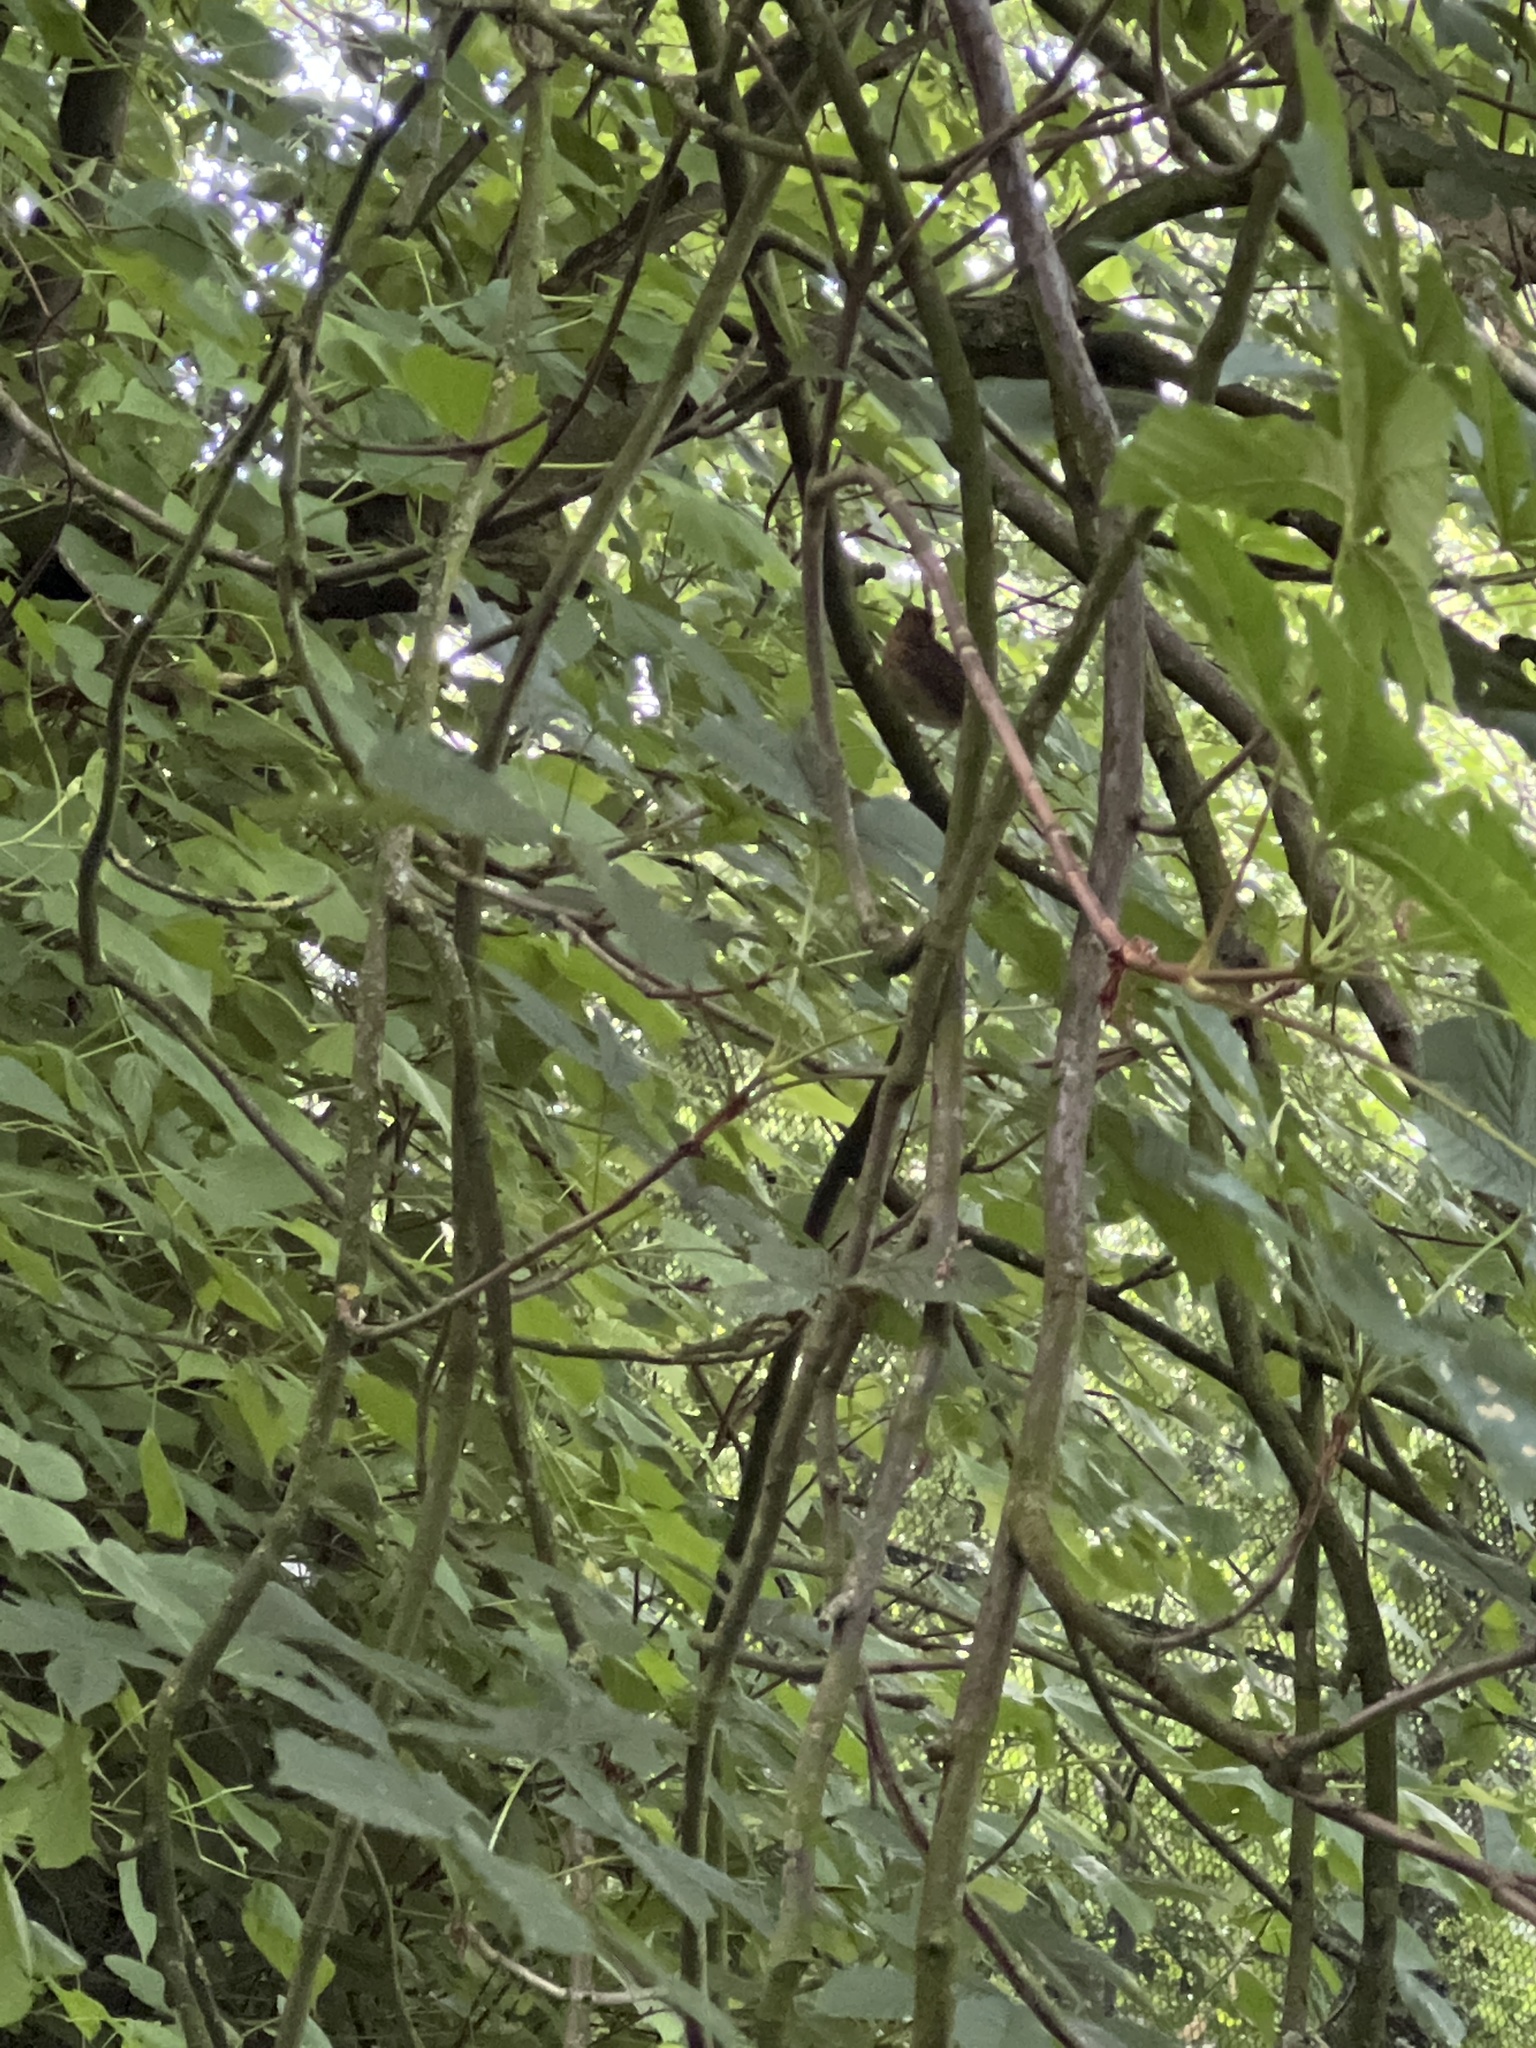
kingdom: Animalia
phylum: Chordata
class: Aves
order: Passeriformes
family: Muscicapidae
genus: Erithacus
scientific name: Erithacus rubecula
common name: European robin
